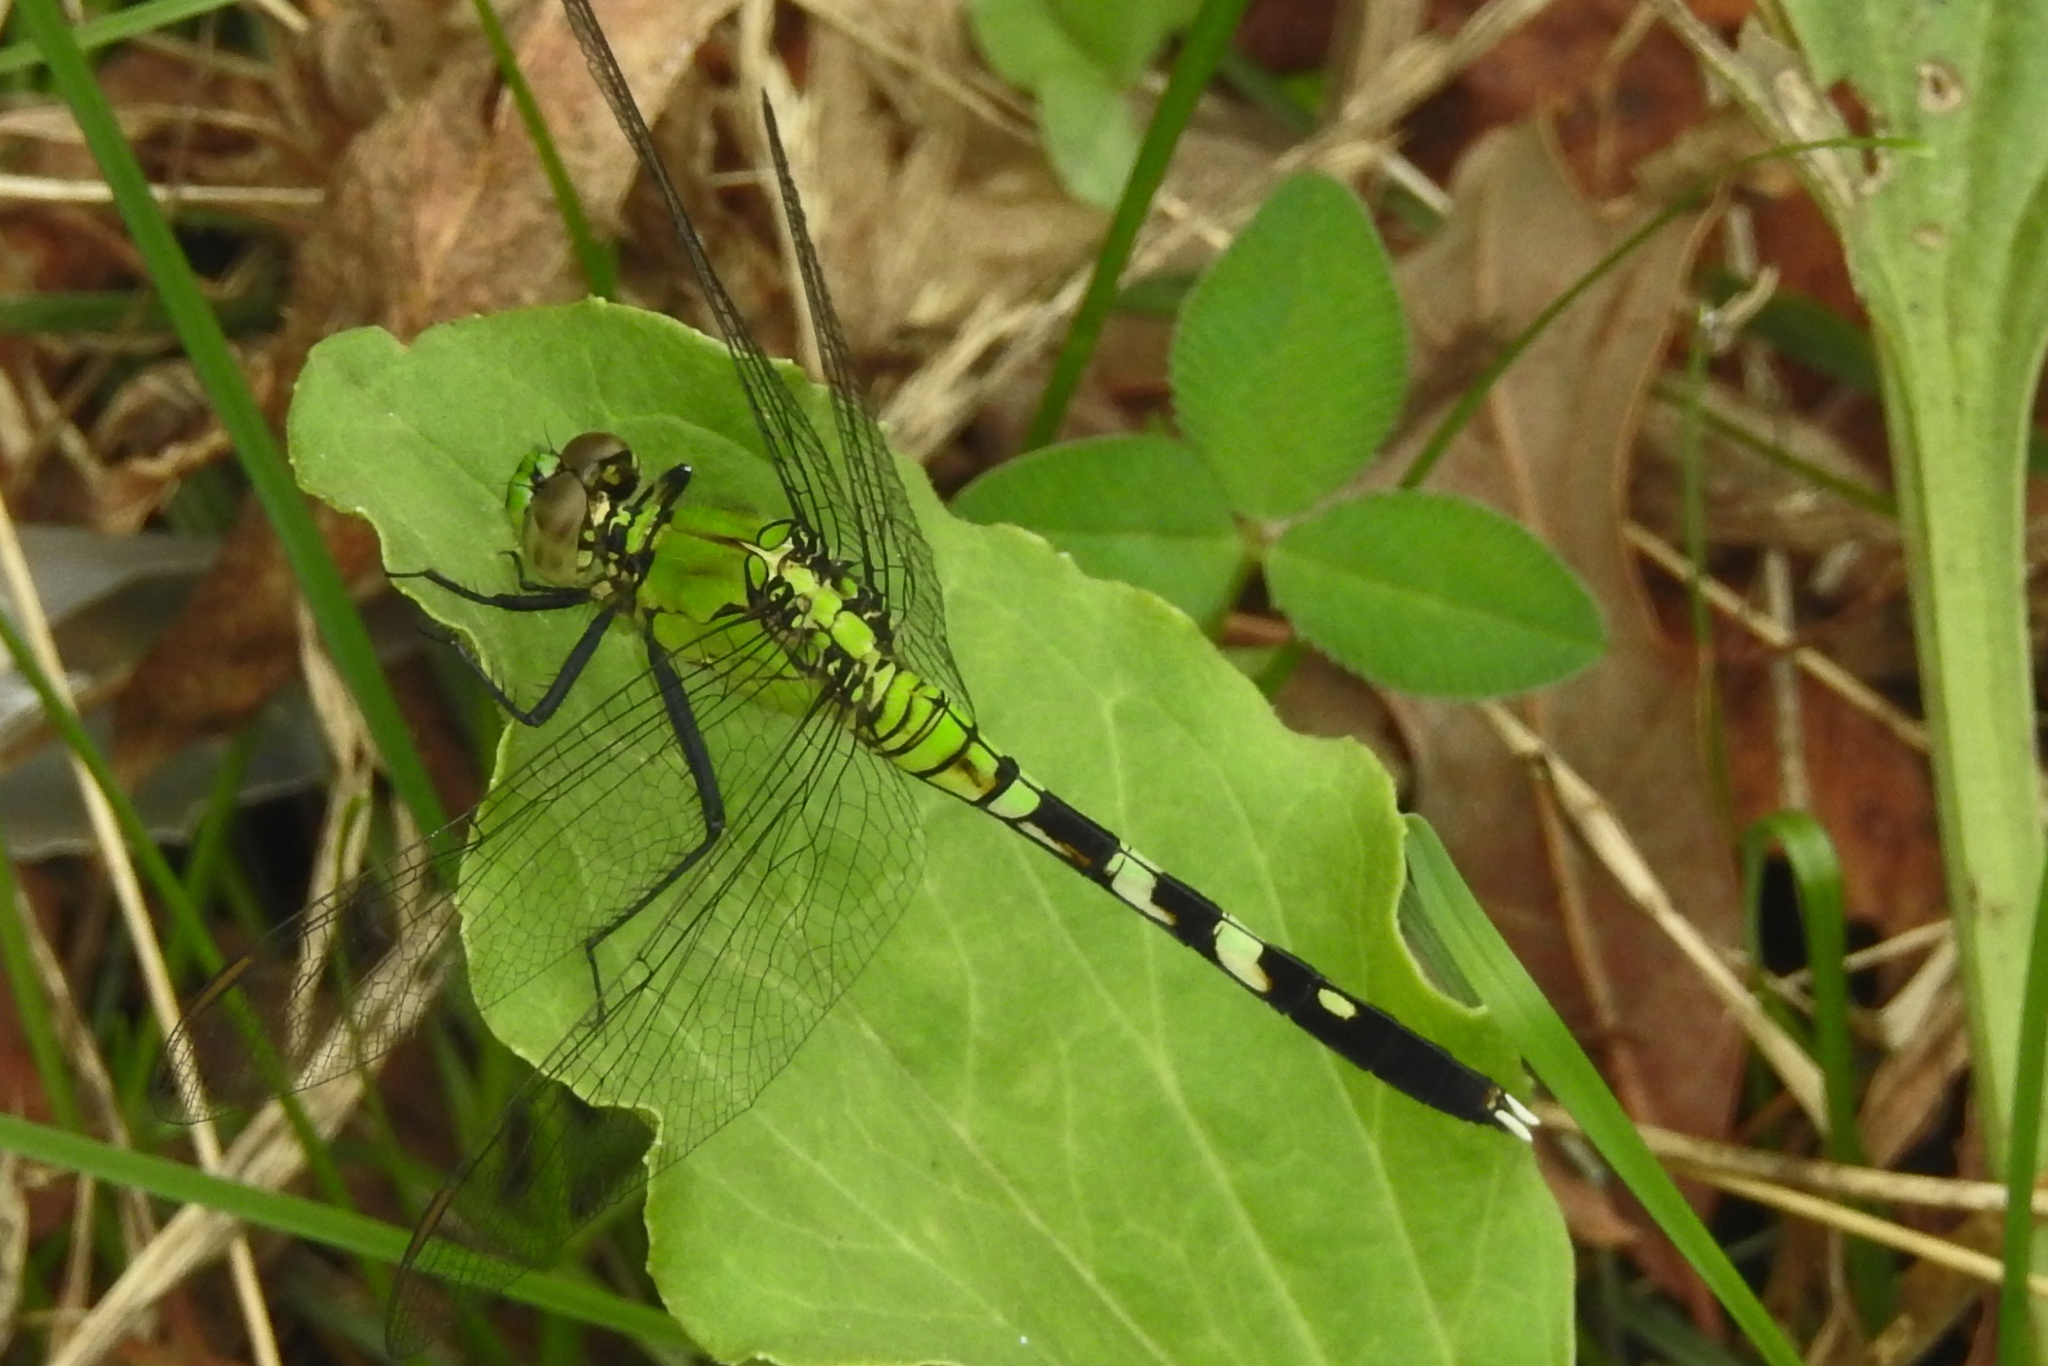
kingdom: Animalia
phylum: Arthropoda
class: Insecta
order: Odonata
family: Libellulidae
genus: Erythemis
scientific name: Erythemis simplicicollis
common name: Eastern pondhawk
